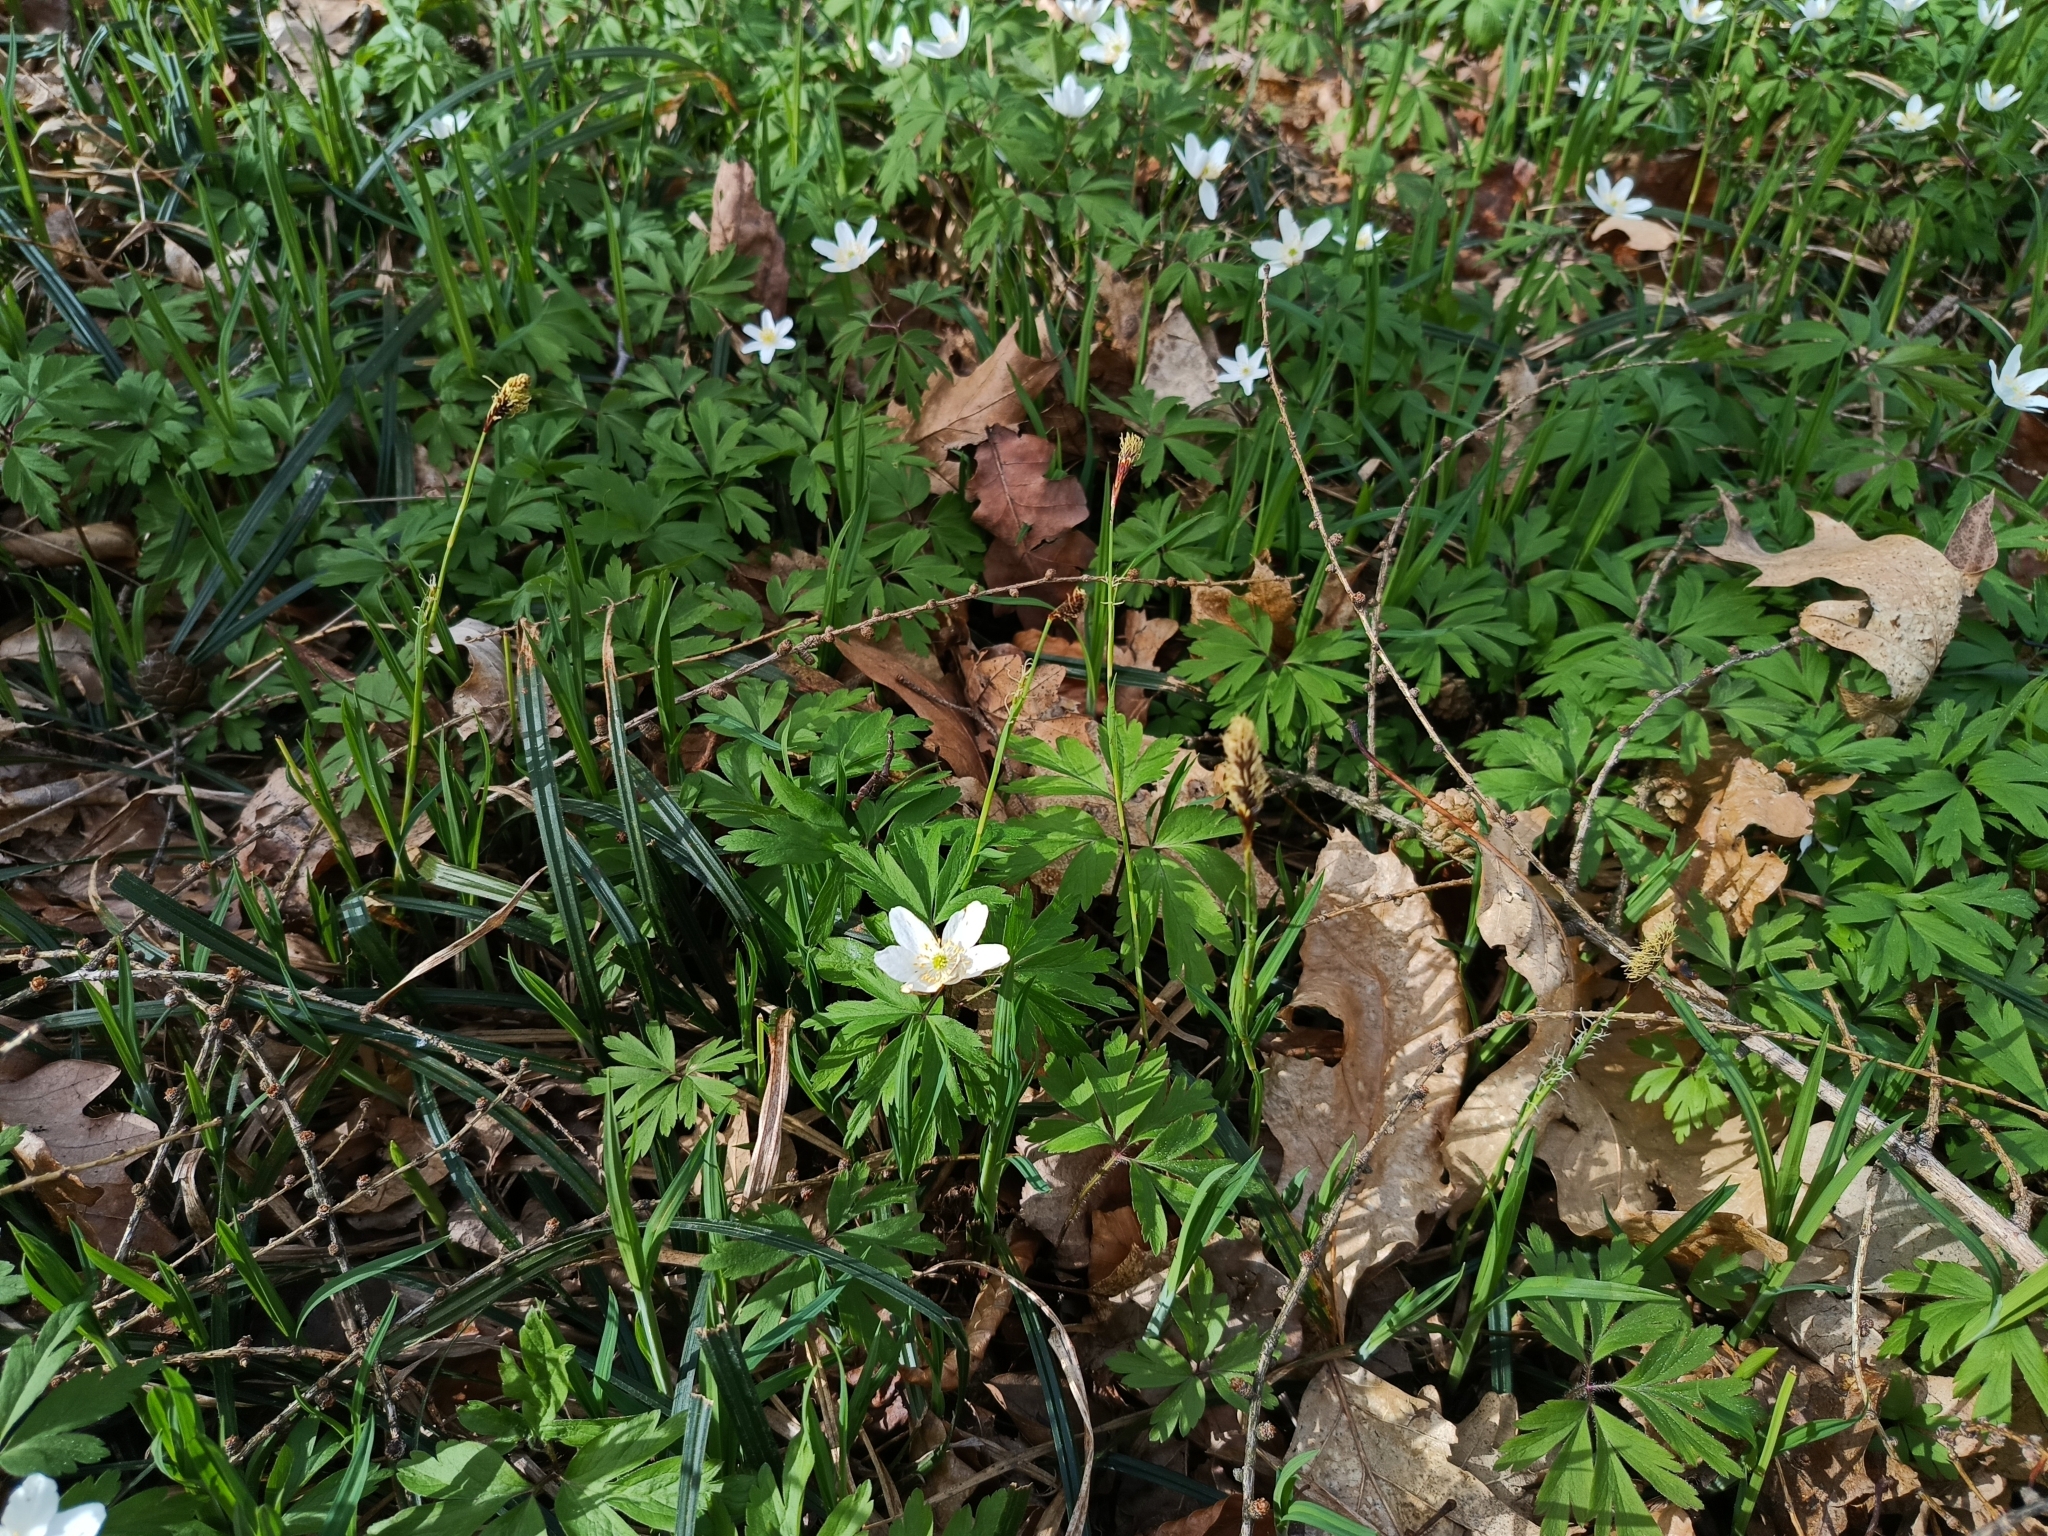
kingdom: Plantae
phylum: Tracheophyta
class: Magnoliopsida
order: Ranunculales
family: Ranunculaceae
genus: Anemone
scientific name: Anemone nemorosa
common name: Wood anemone
